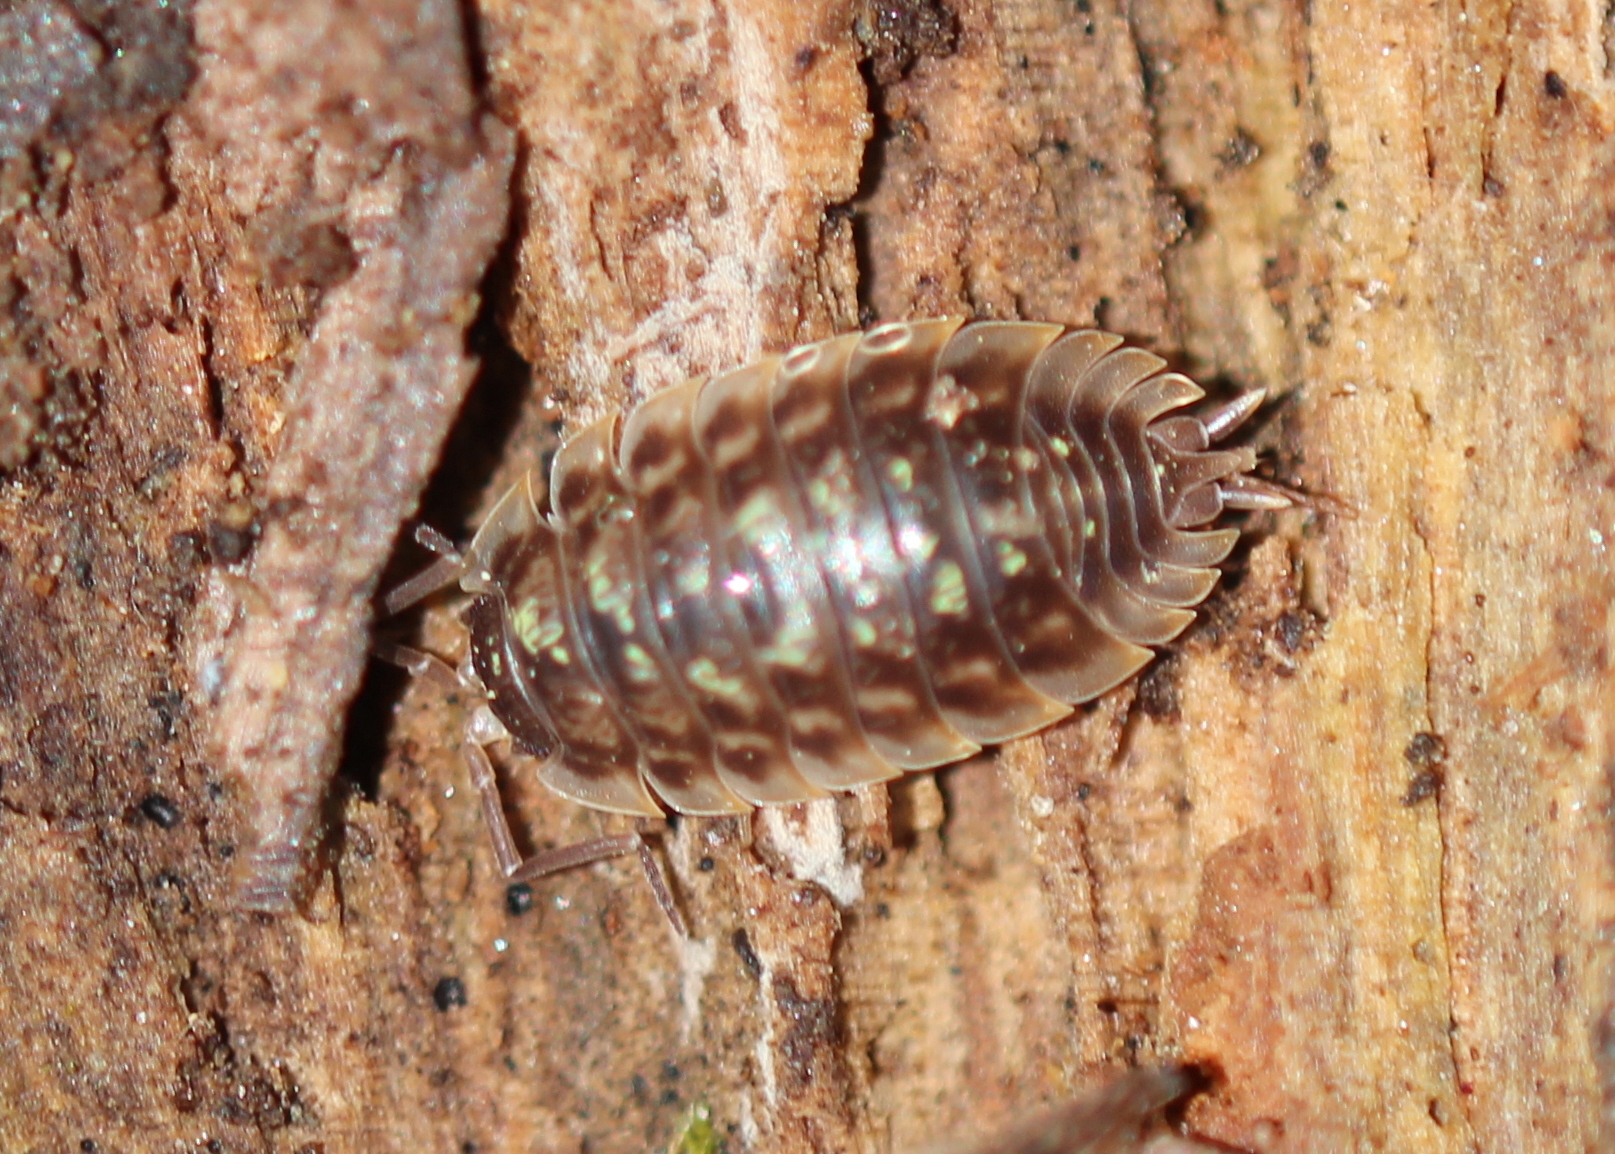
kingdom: Animalia
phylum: Arthropoda
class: Malacostraca
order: Isopoda
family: Oniscidae
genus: Oniscus
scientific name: Oniscus asellus
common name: Common shiny woodlouse
